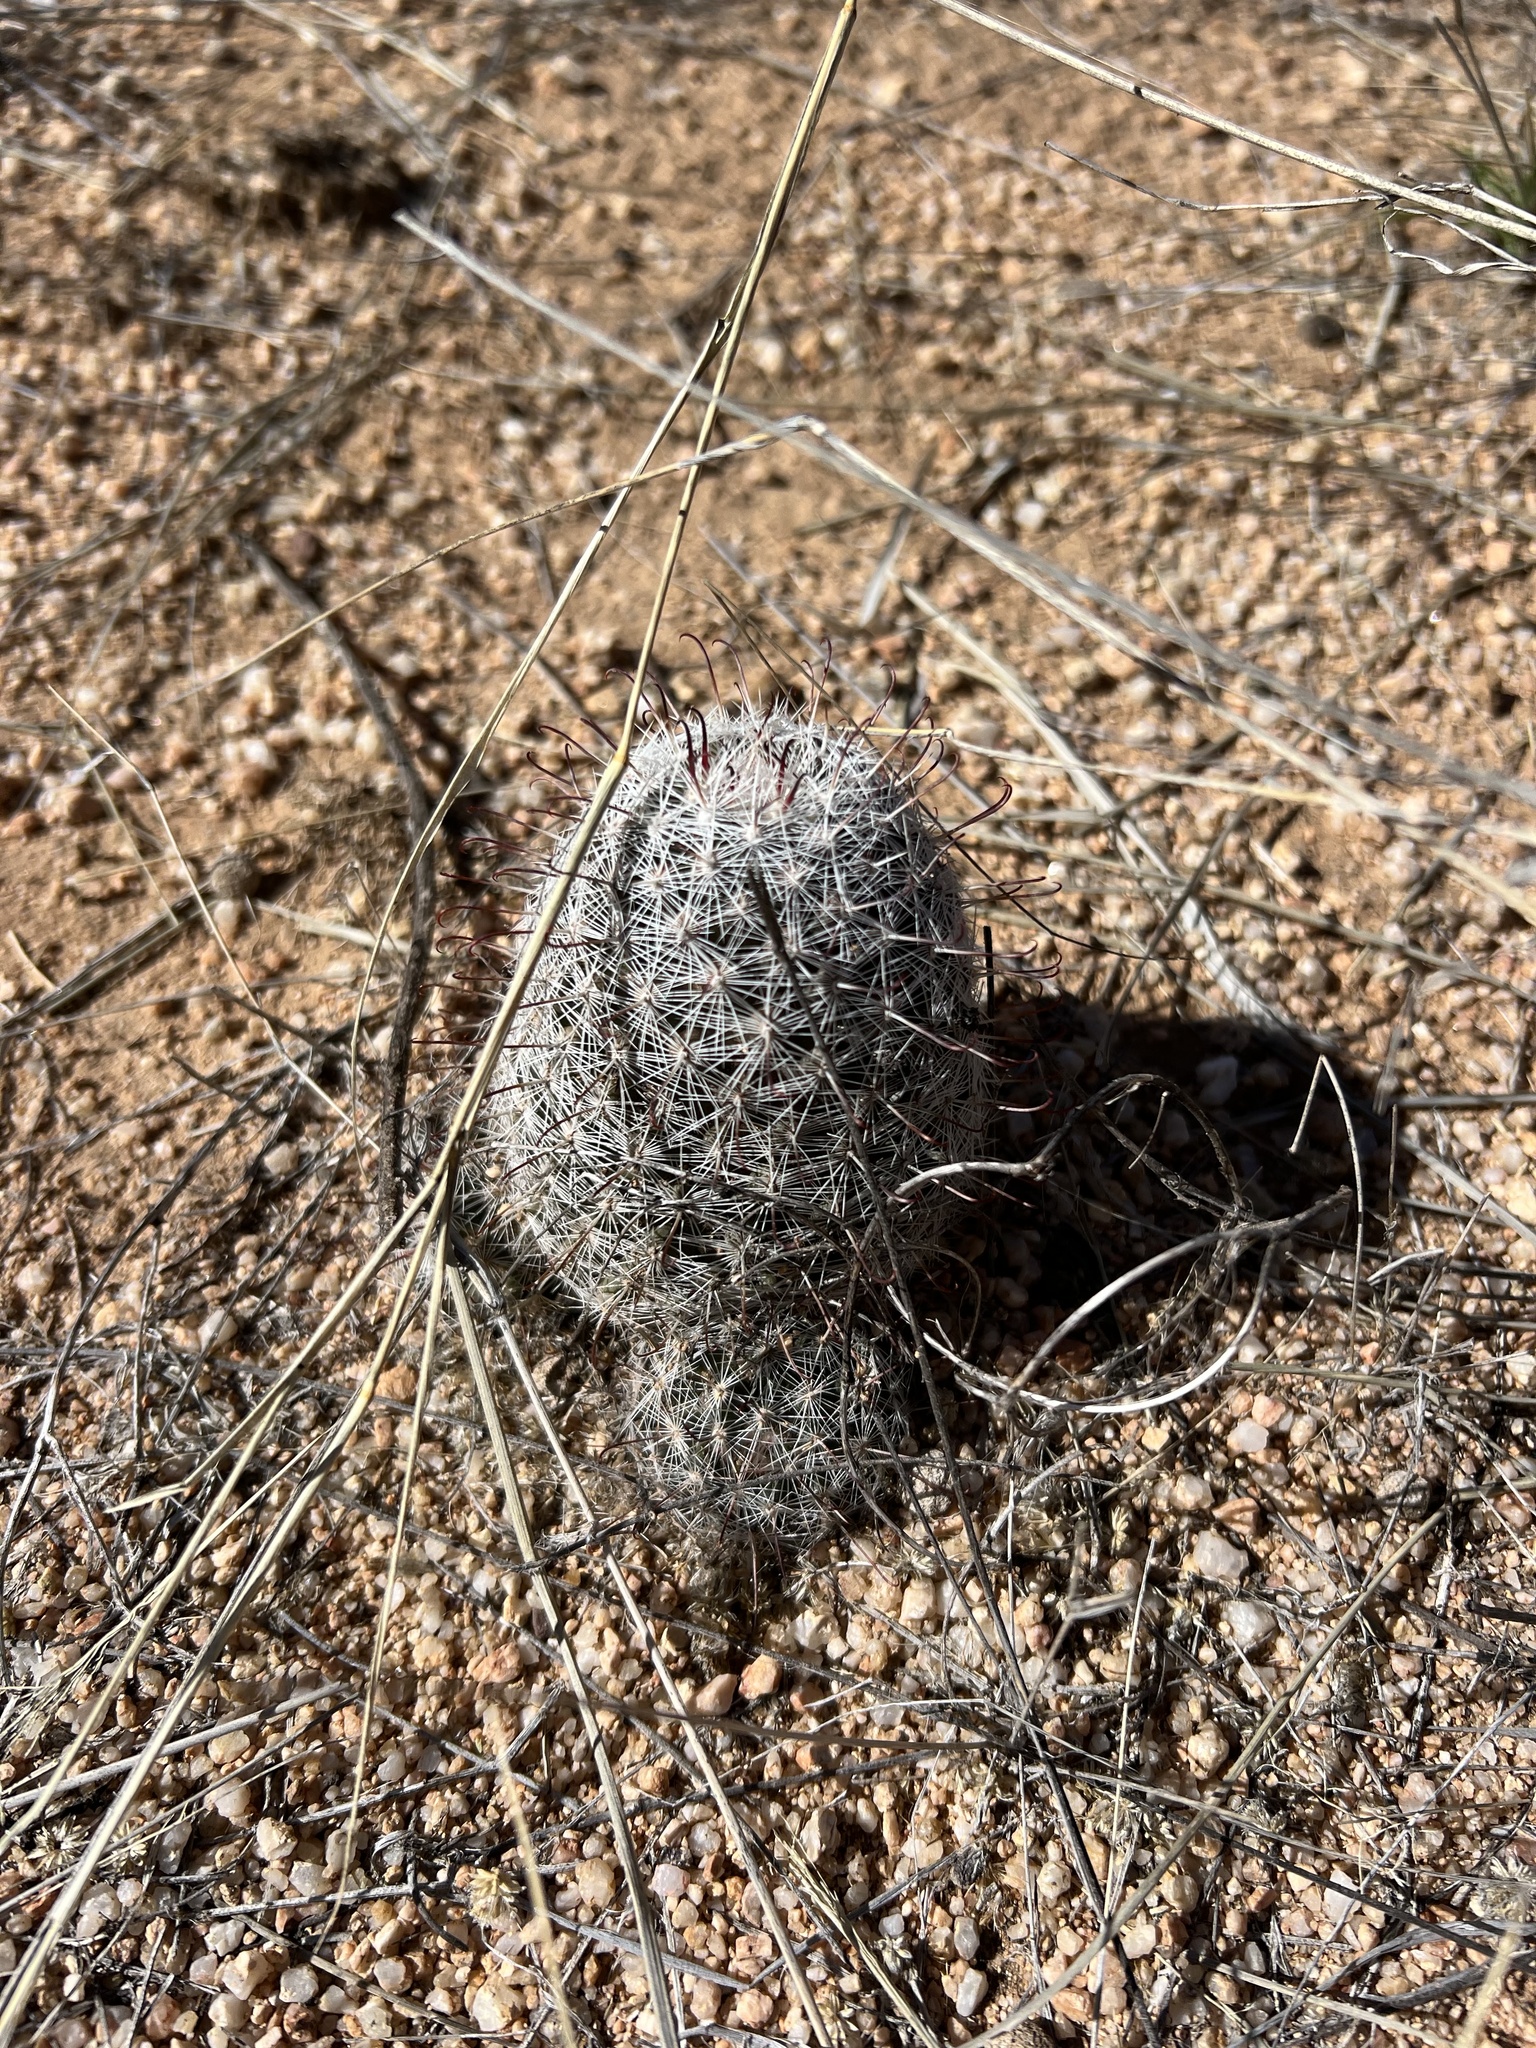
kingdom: Plantae
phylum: Tracheophyta
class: Magnoliopsida
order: Caryophyllales
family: Cactaceae
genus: Cochemiea
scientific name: Cochemiea grahamii
